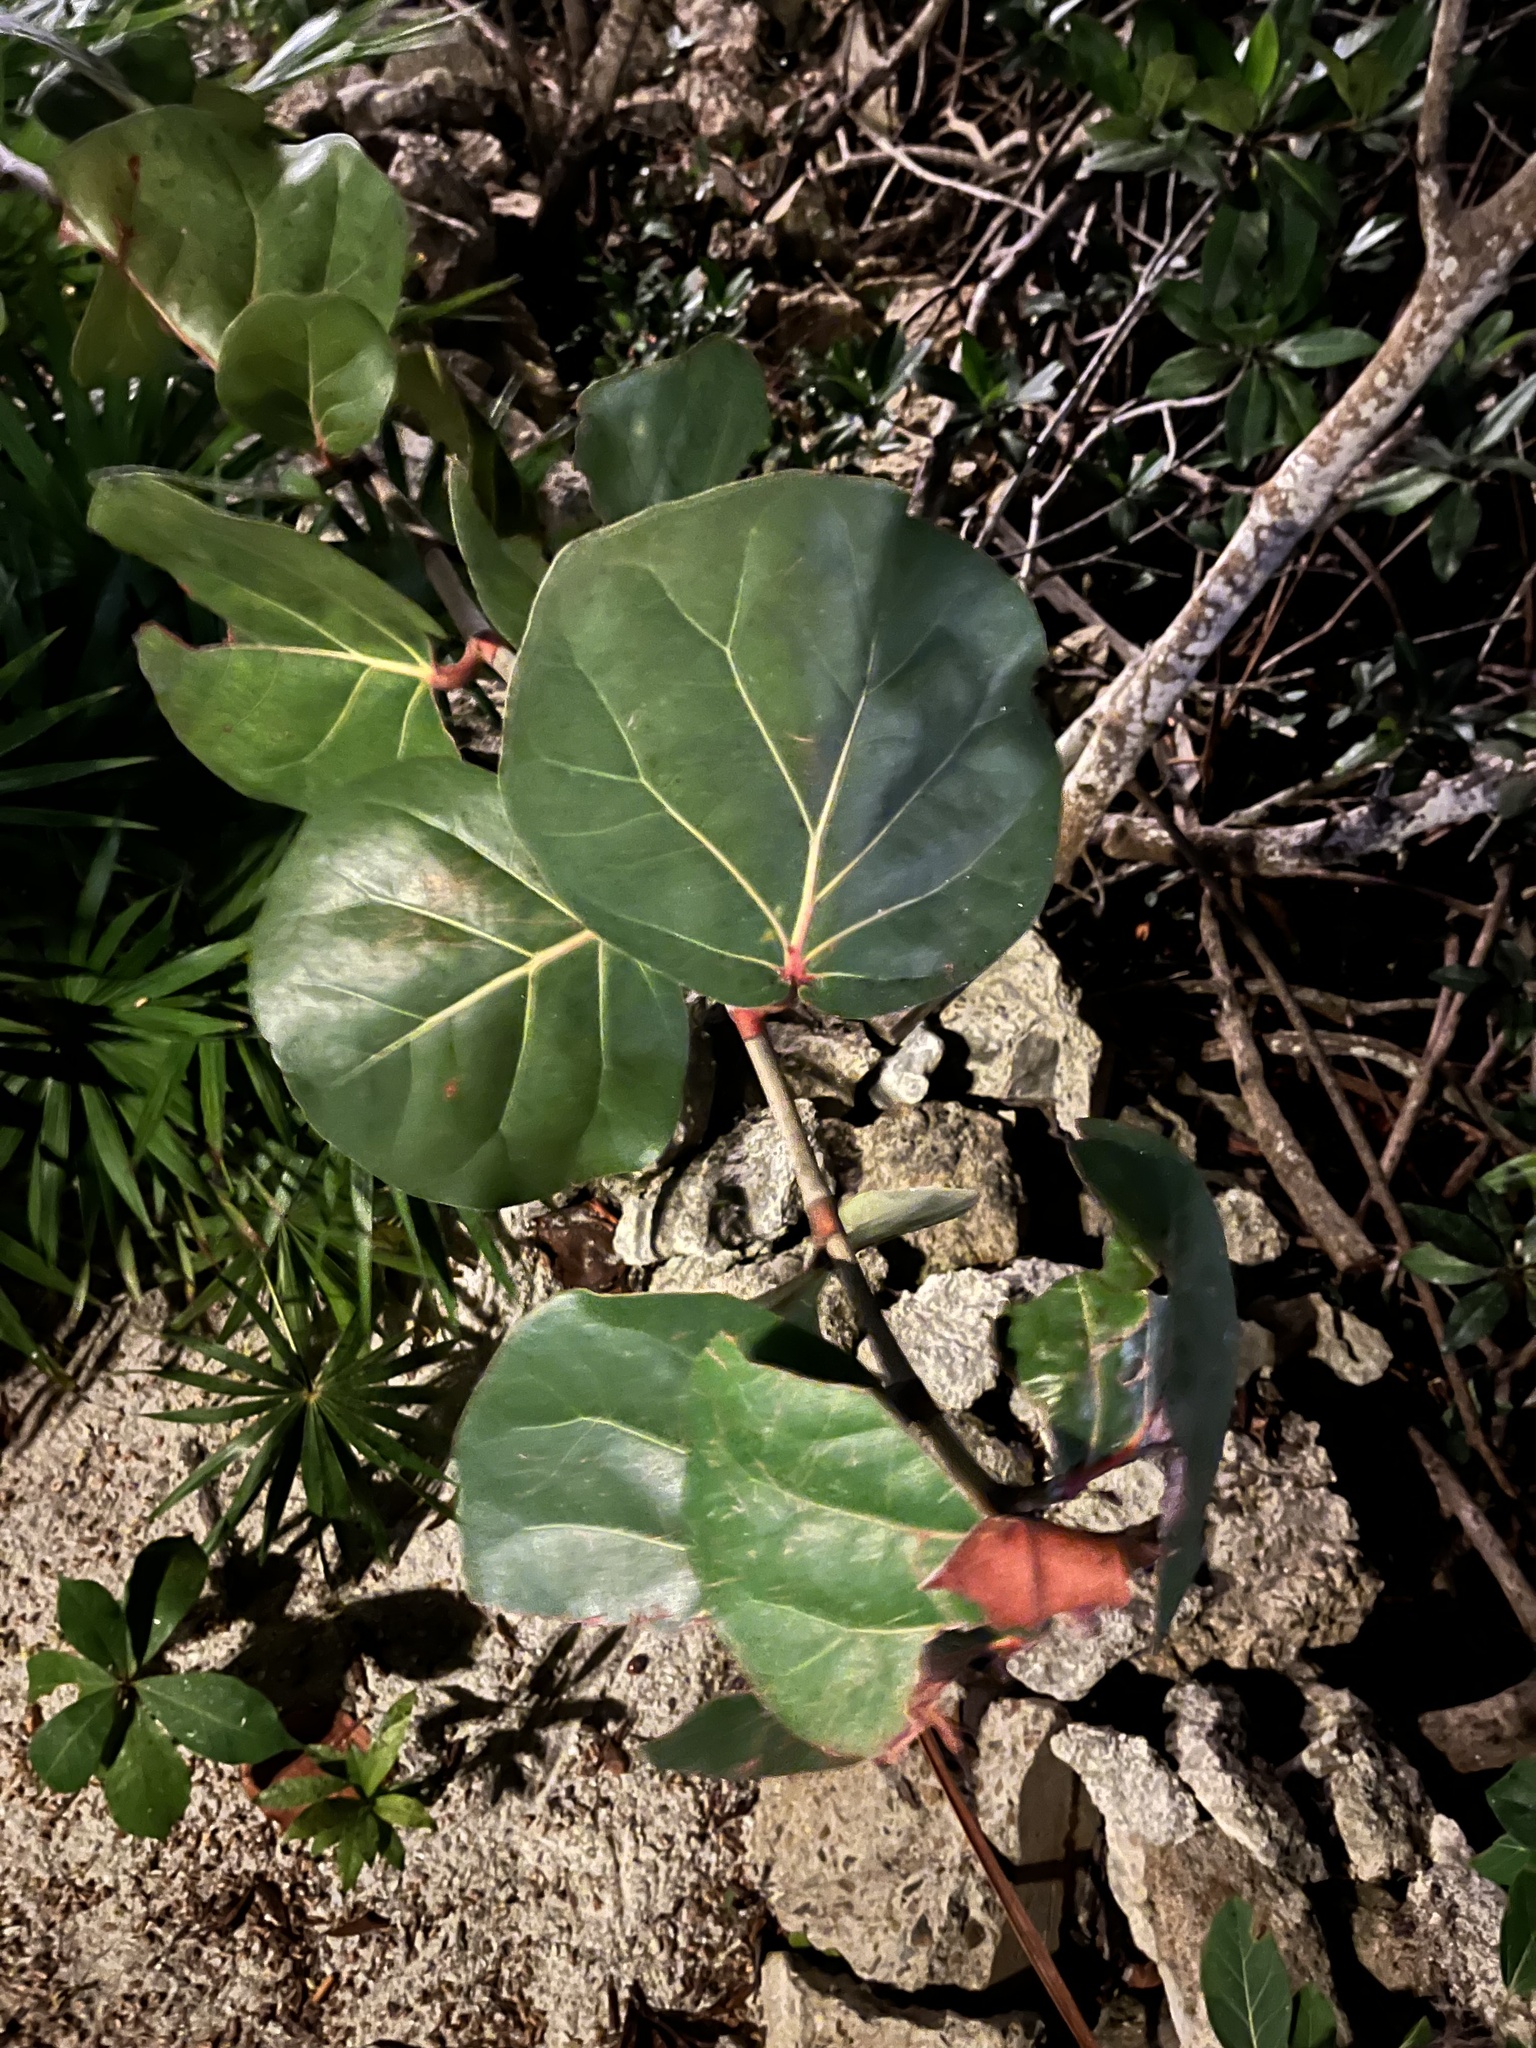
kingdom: Plantae
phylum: Tracheophyta
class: Magnoliopsida
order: Caryophyllales
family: Polygonaceae
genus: Coccoloba
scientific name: Coccoloba uvifera
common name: Seagrape
